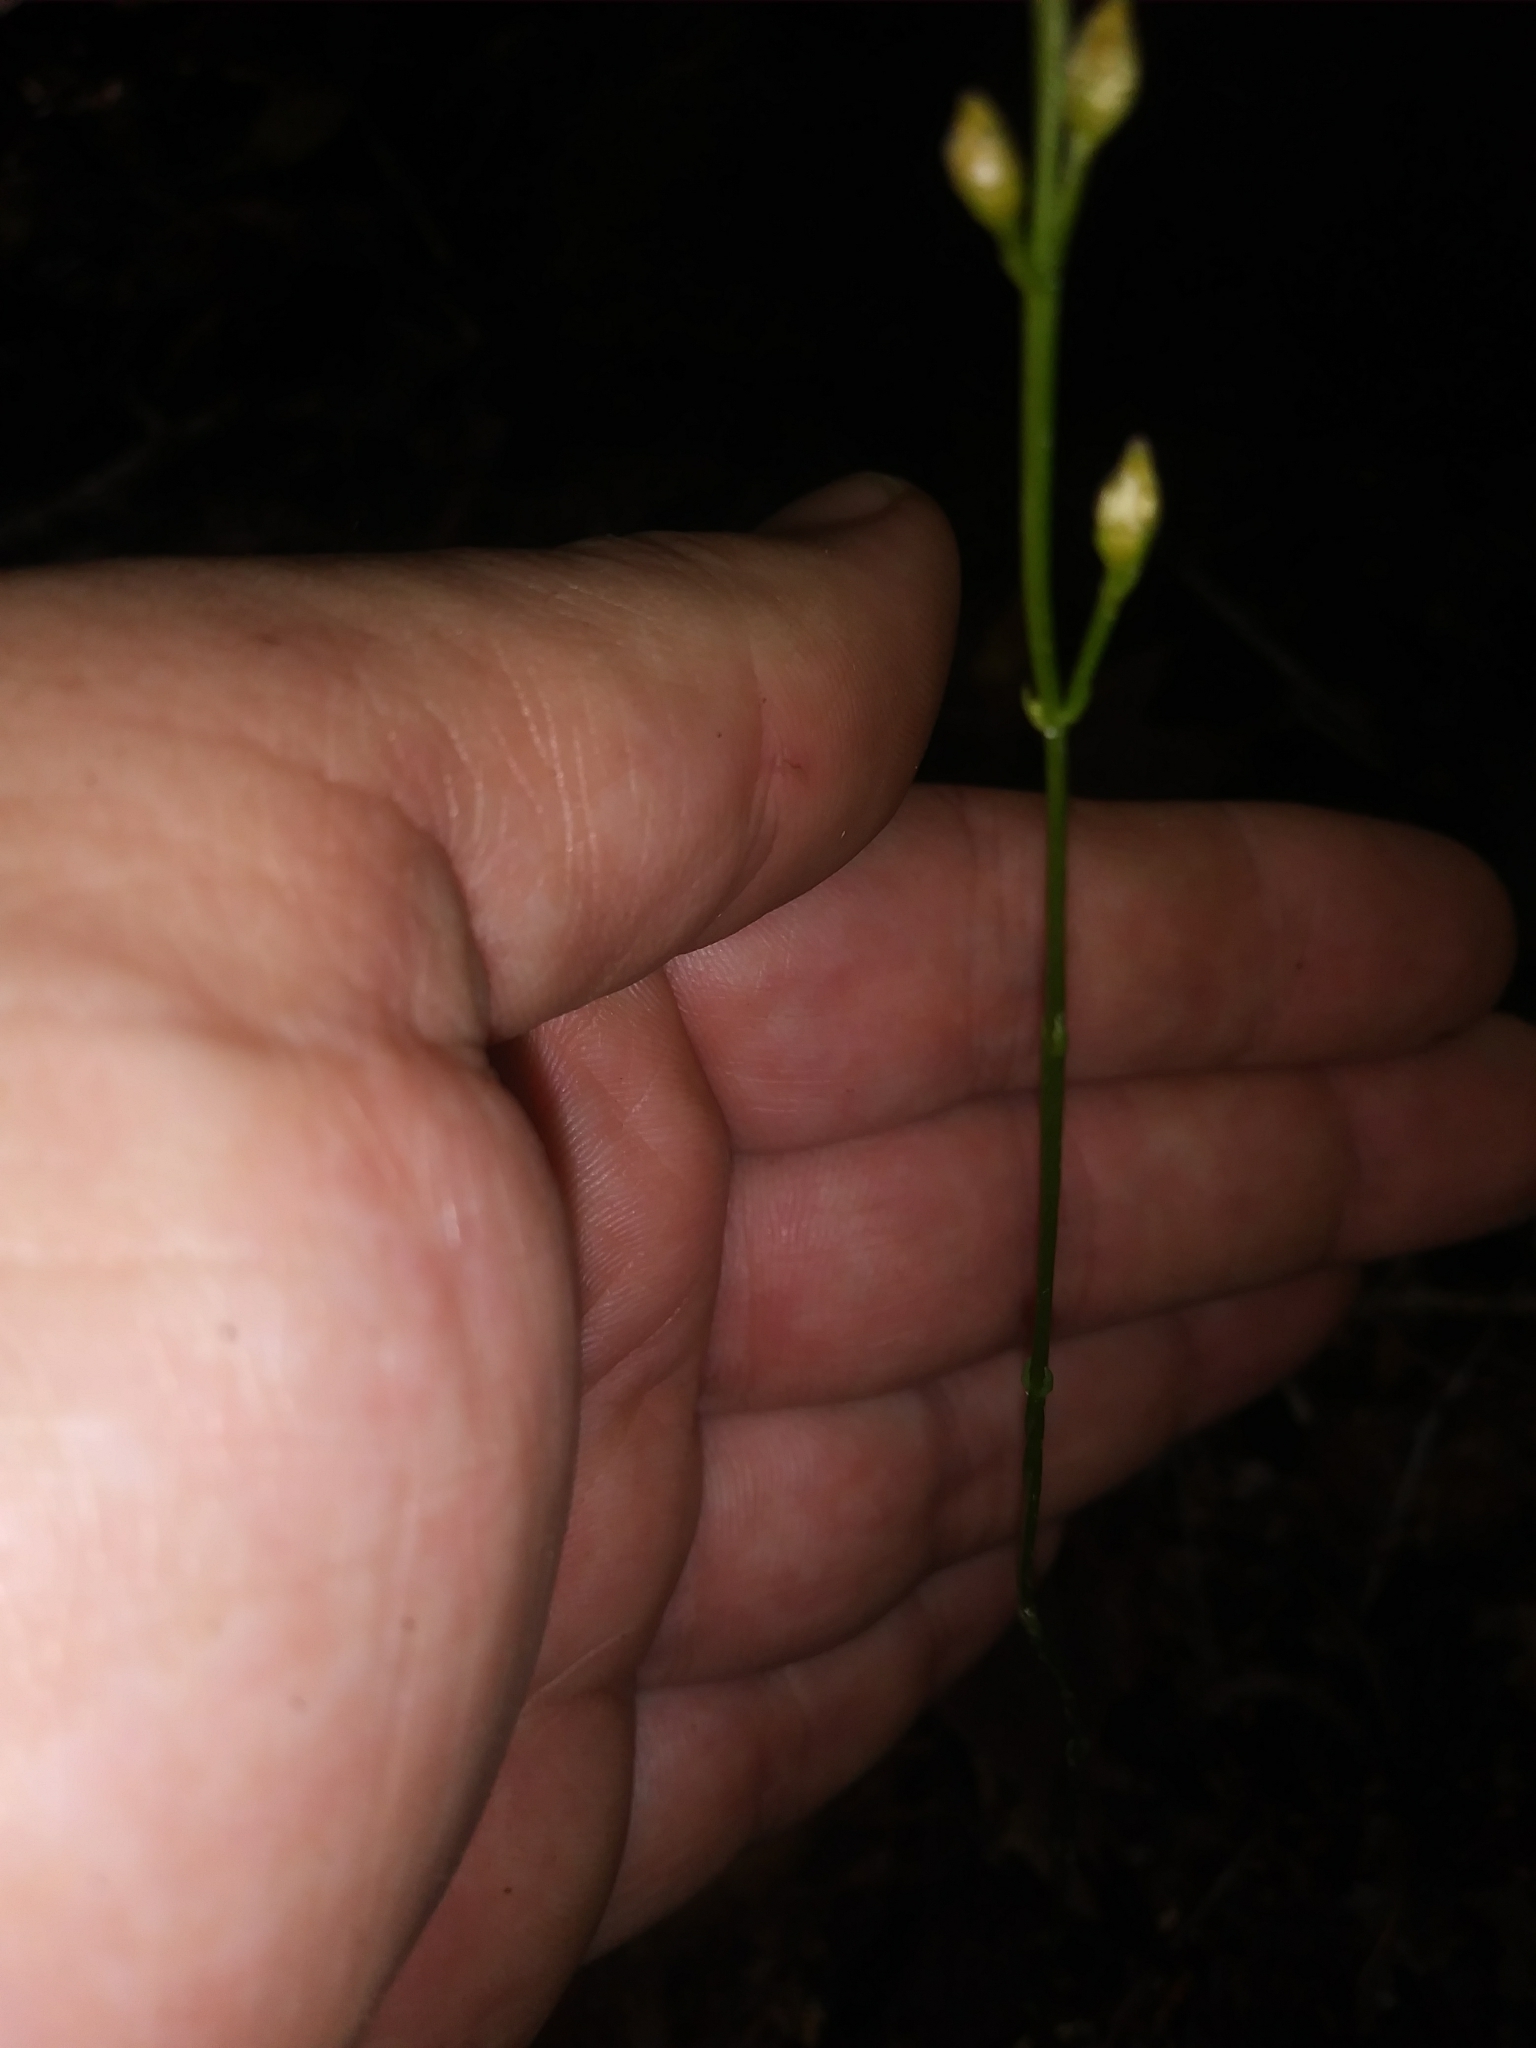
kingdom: Plantae
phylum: Tracheophyta
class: Magnoliopsida
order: Gentianales
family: Gentianaceae
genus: Bartonia
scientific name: Bartonia virginica
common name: Yellow bartonia
